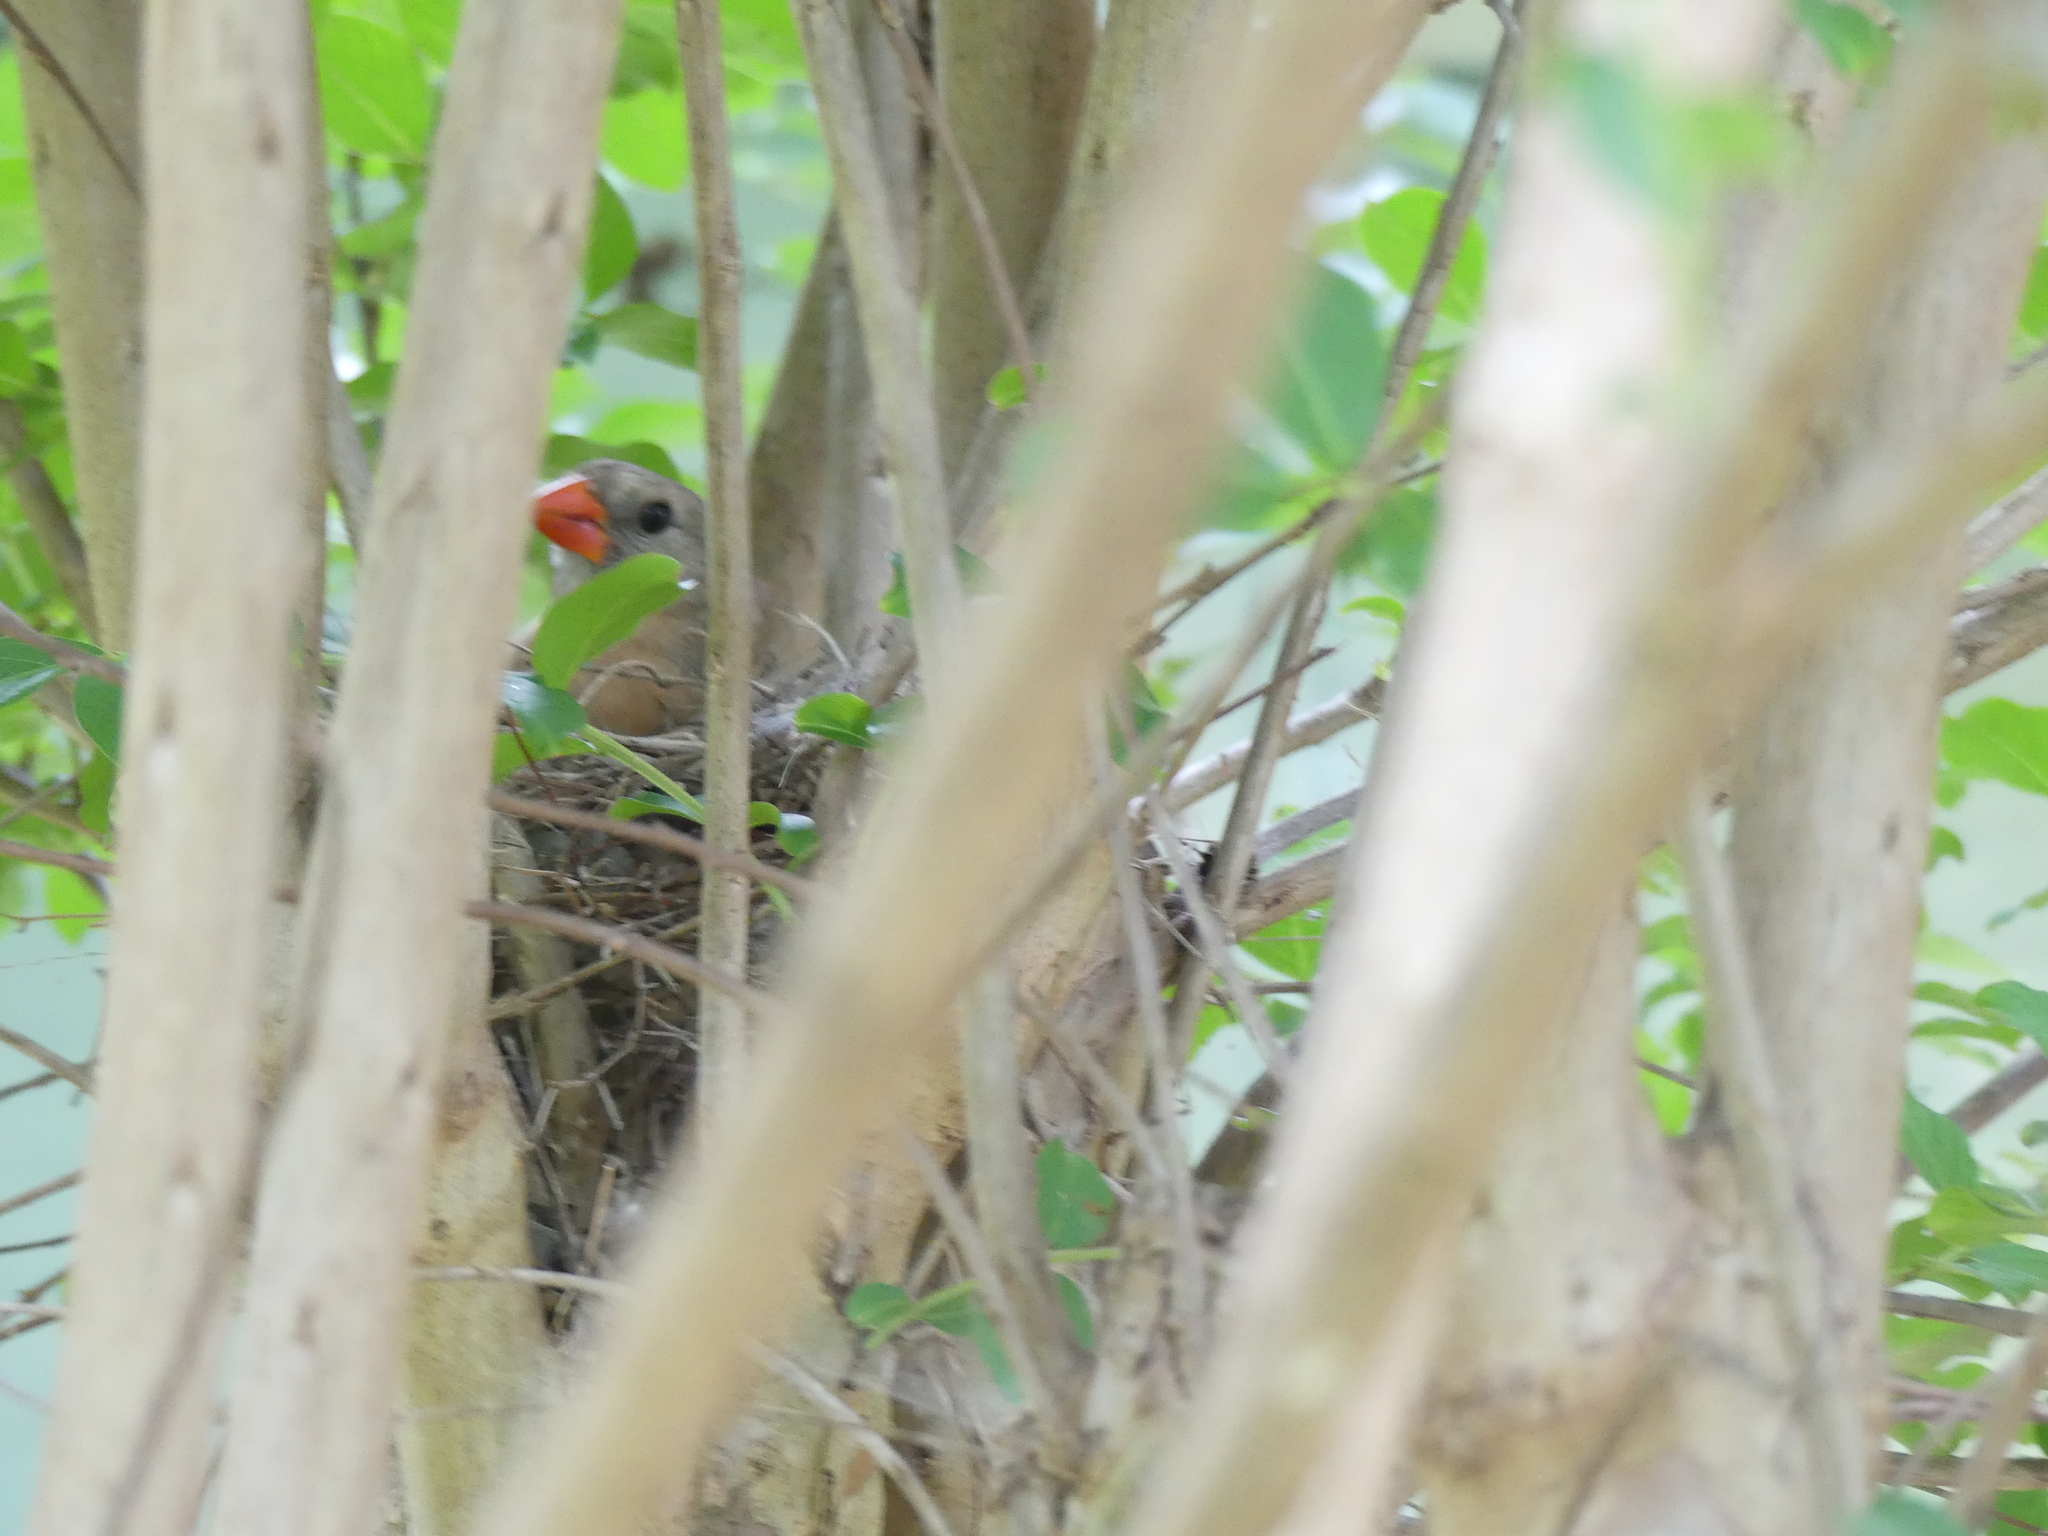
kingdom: Animalia
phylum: Chordata
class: Aves
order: Passeriformes
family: Cardinalidae
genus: Cardinalis
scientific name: Cardinalis cardinalis
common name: Northern cardinal
